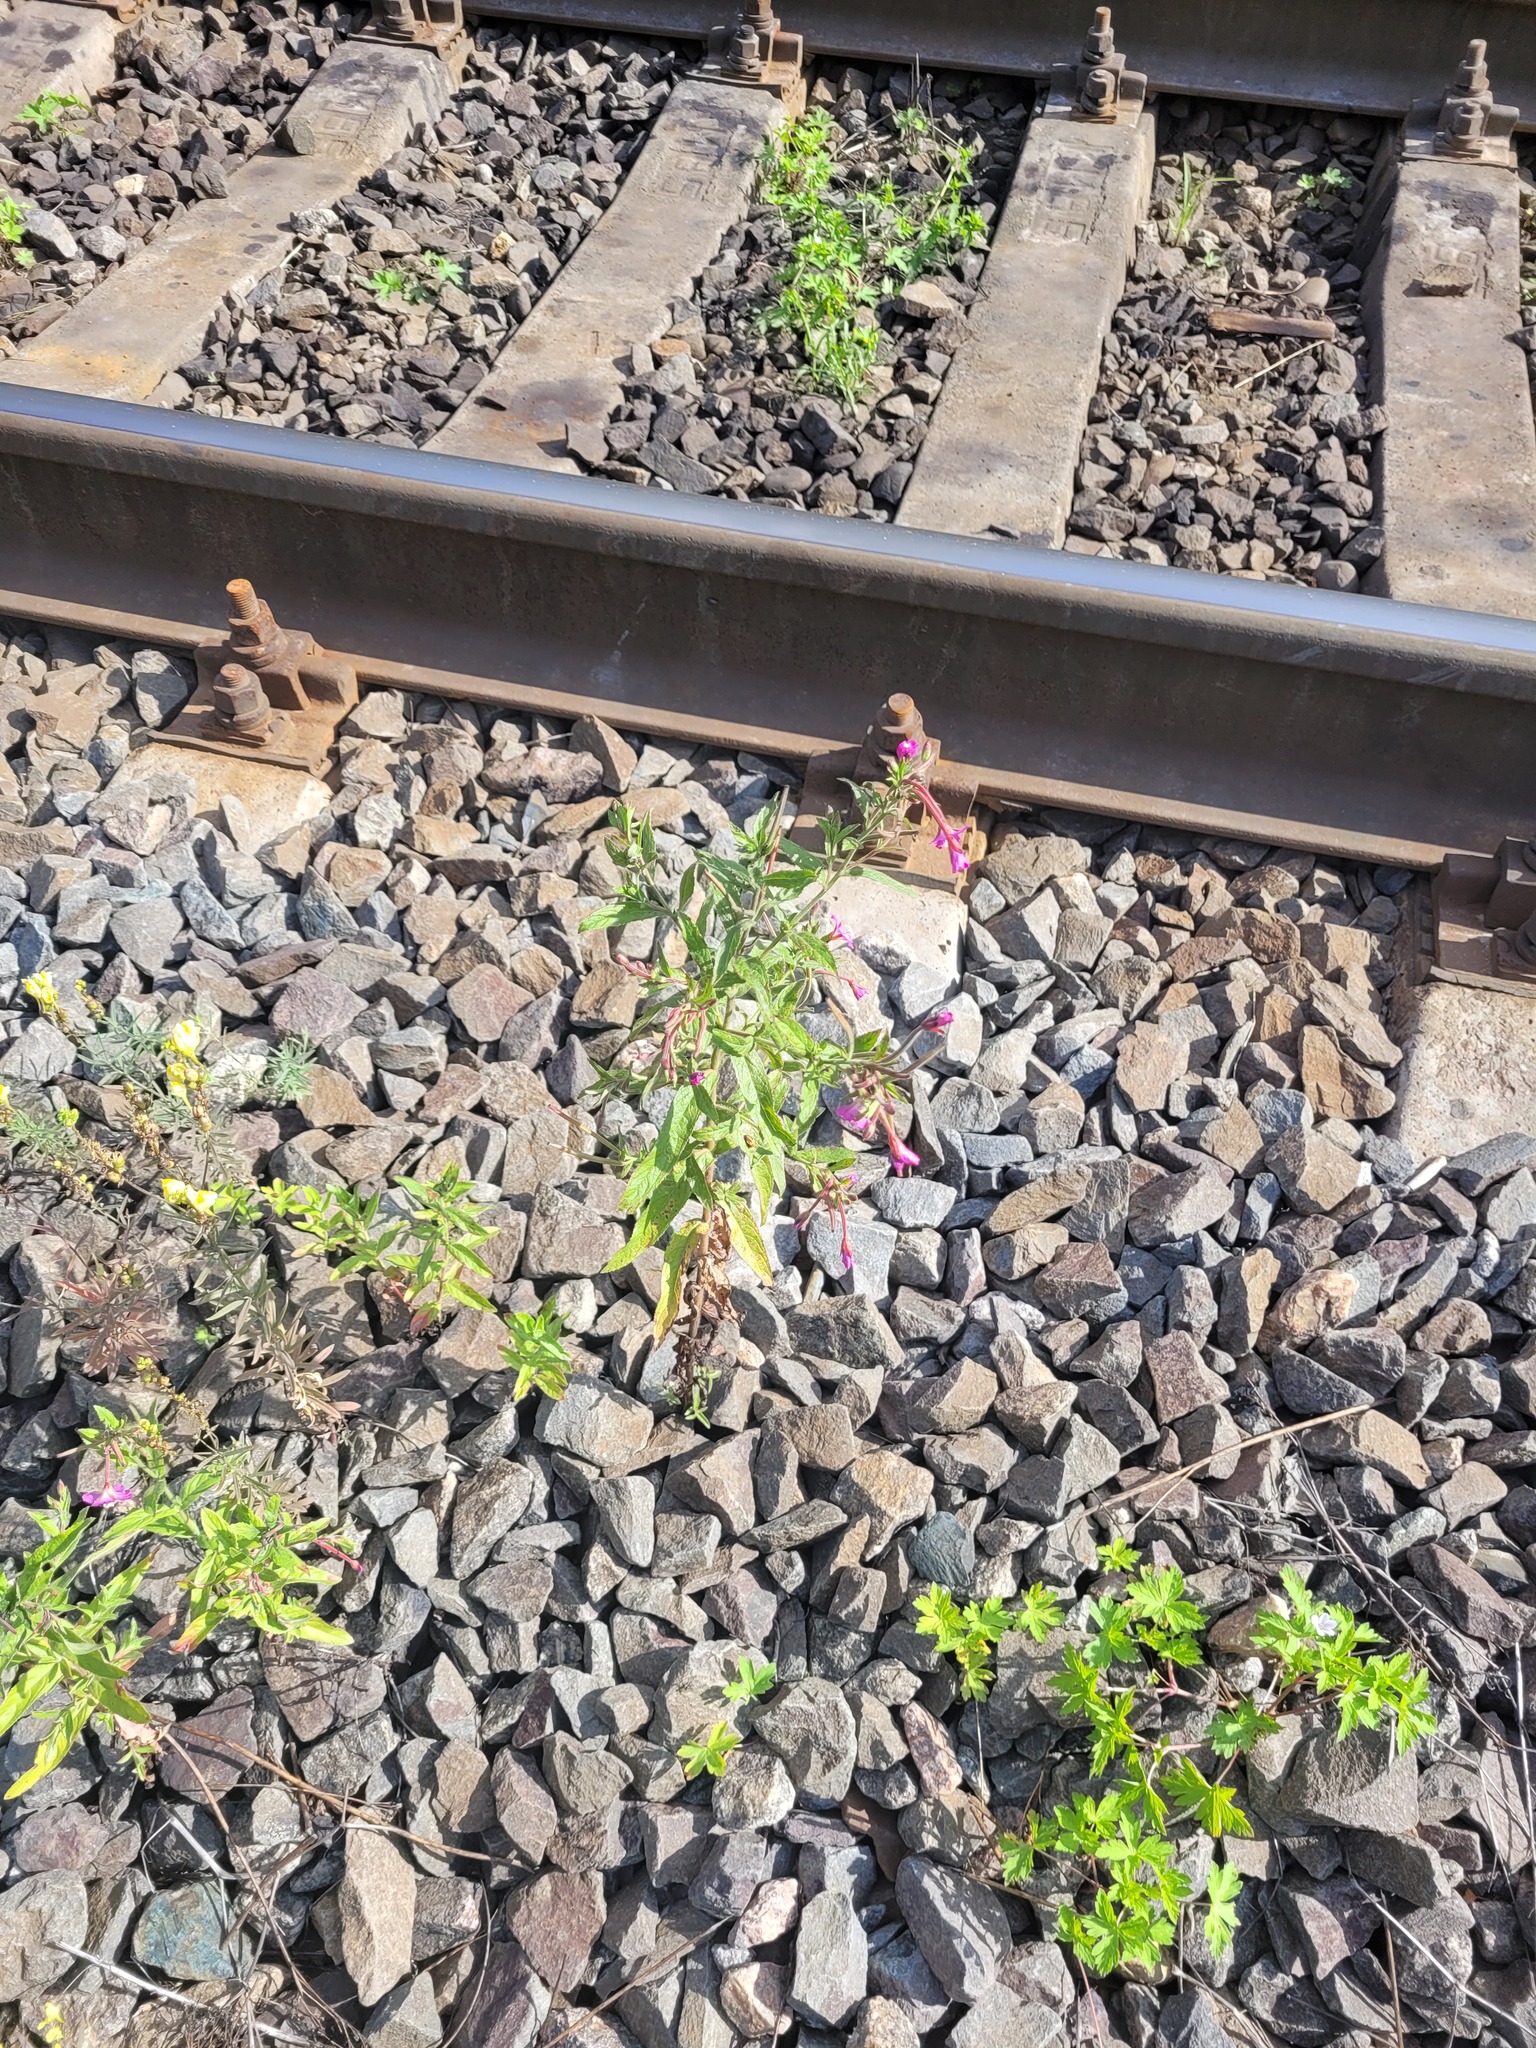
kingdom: Plantae
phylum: Tracheophyta
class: Magnoliopsida
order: Myrtales
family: Onagraceae
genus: Epilobium
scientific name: Epilobium hirsutum
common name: Great willowherb
